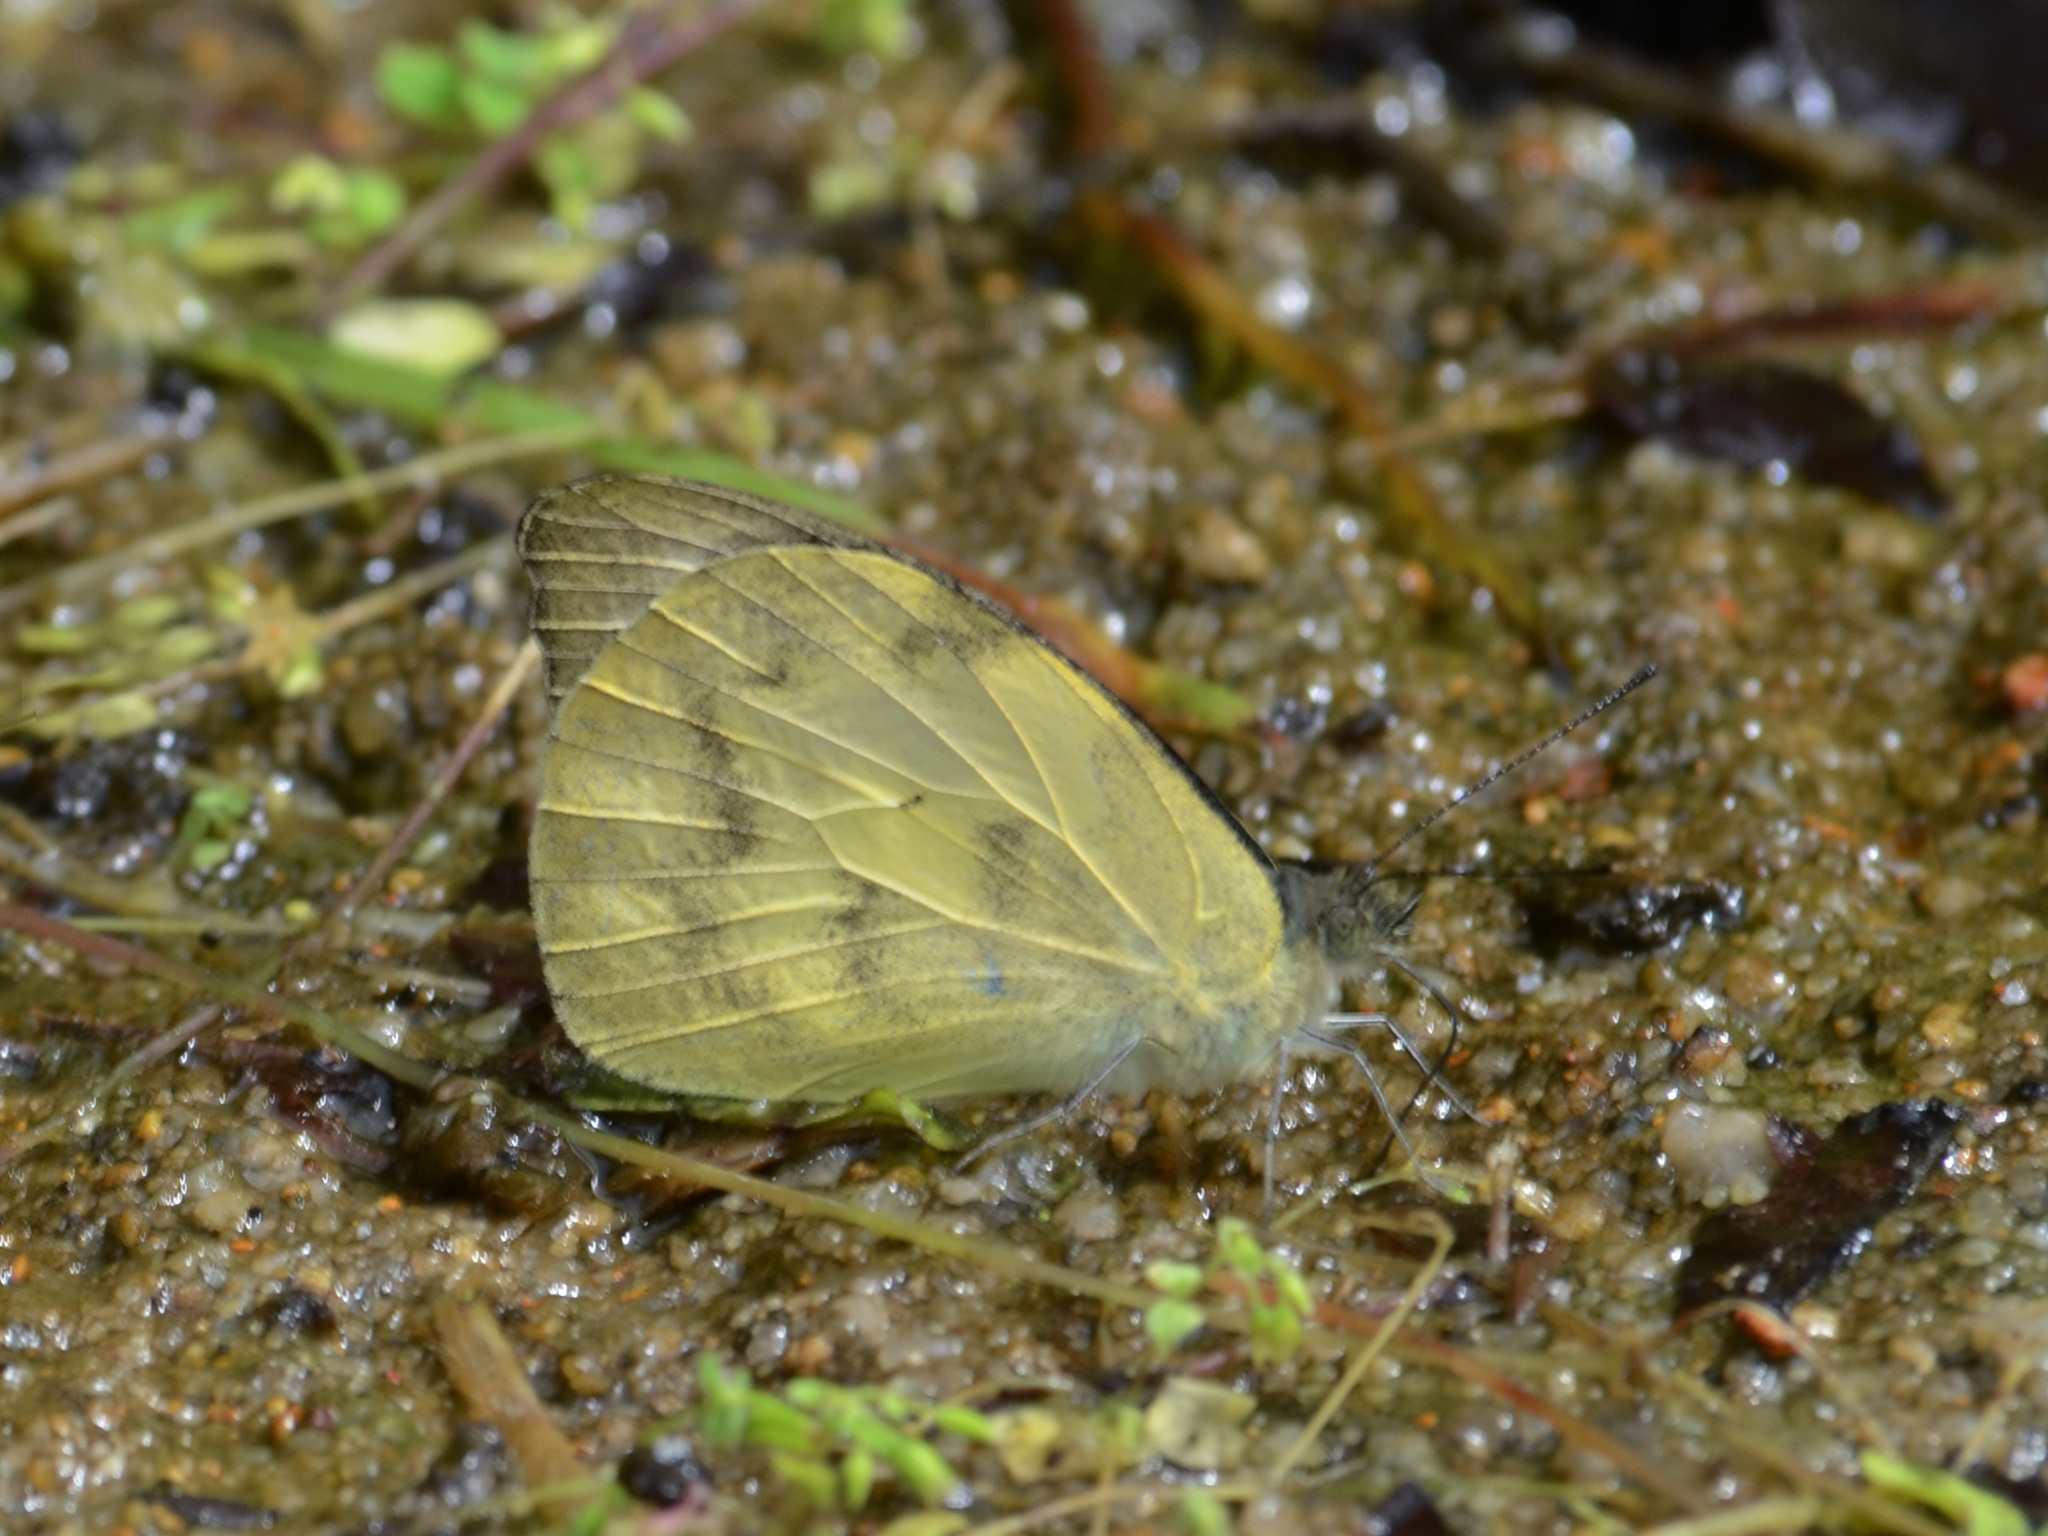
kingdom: Animalia
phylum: Arthropoda
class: Insecta
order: Lepidoptera
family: Pieridae
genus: Appias
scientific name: Appias pandione
